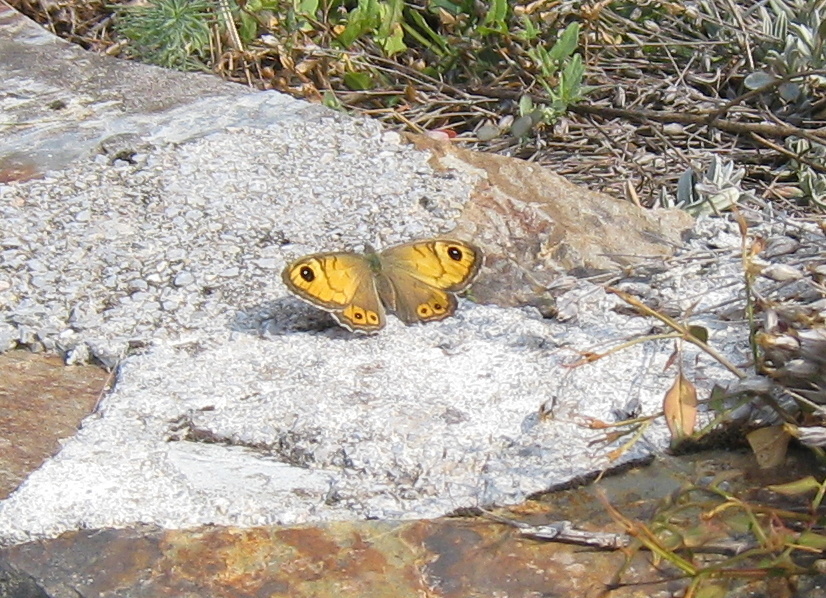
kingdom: Animalia
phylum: Arthropoda
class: Insecta
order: Lepidoptera
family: Nymphalidae
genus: Pararge
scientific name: Pararge Lasiommata maera
